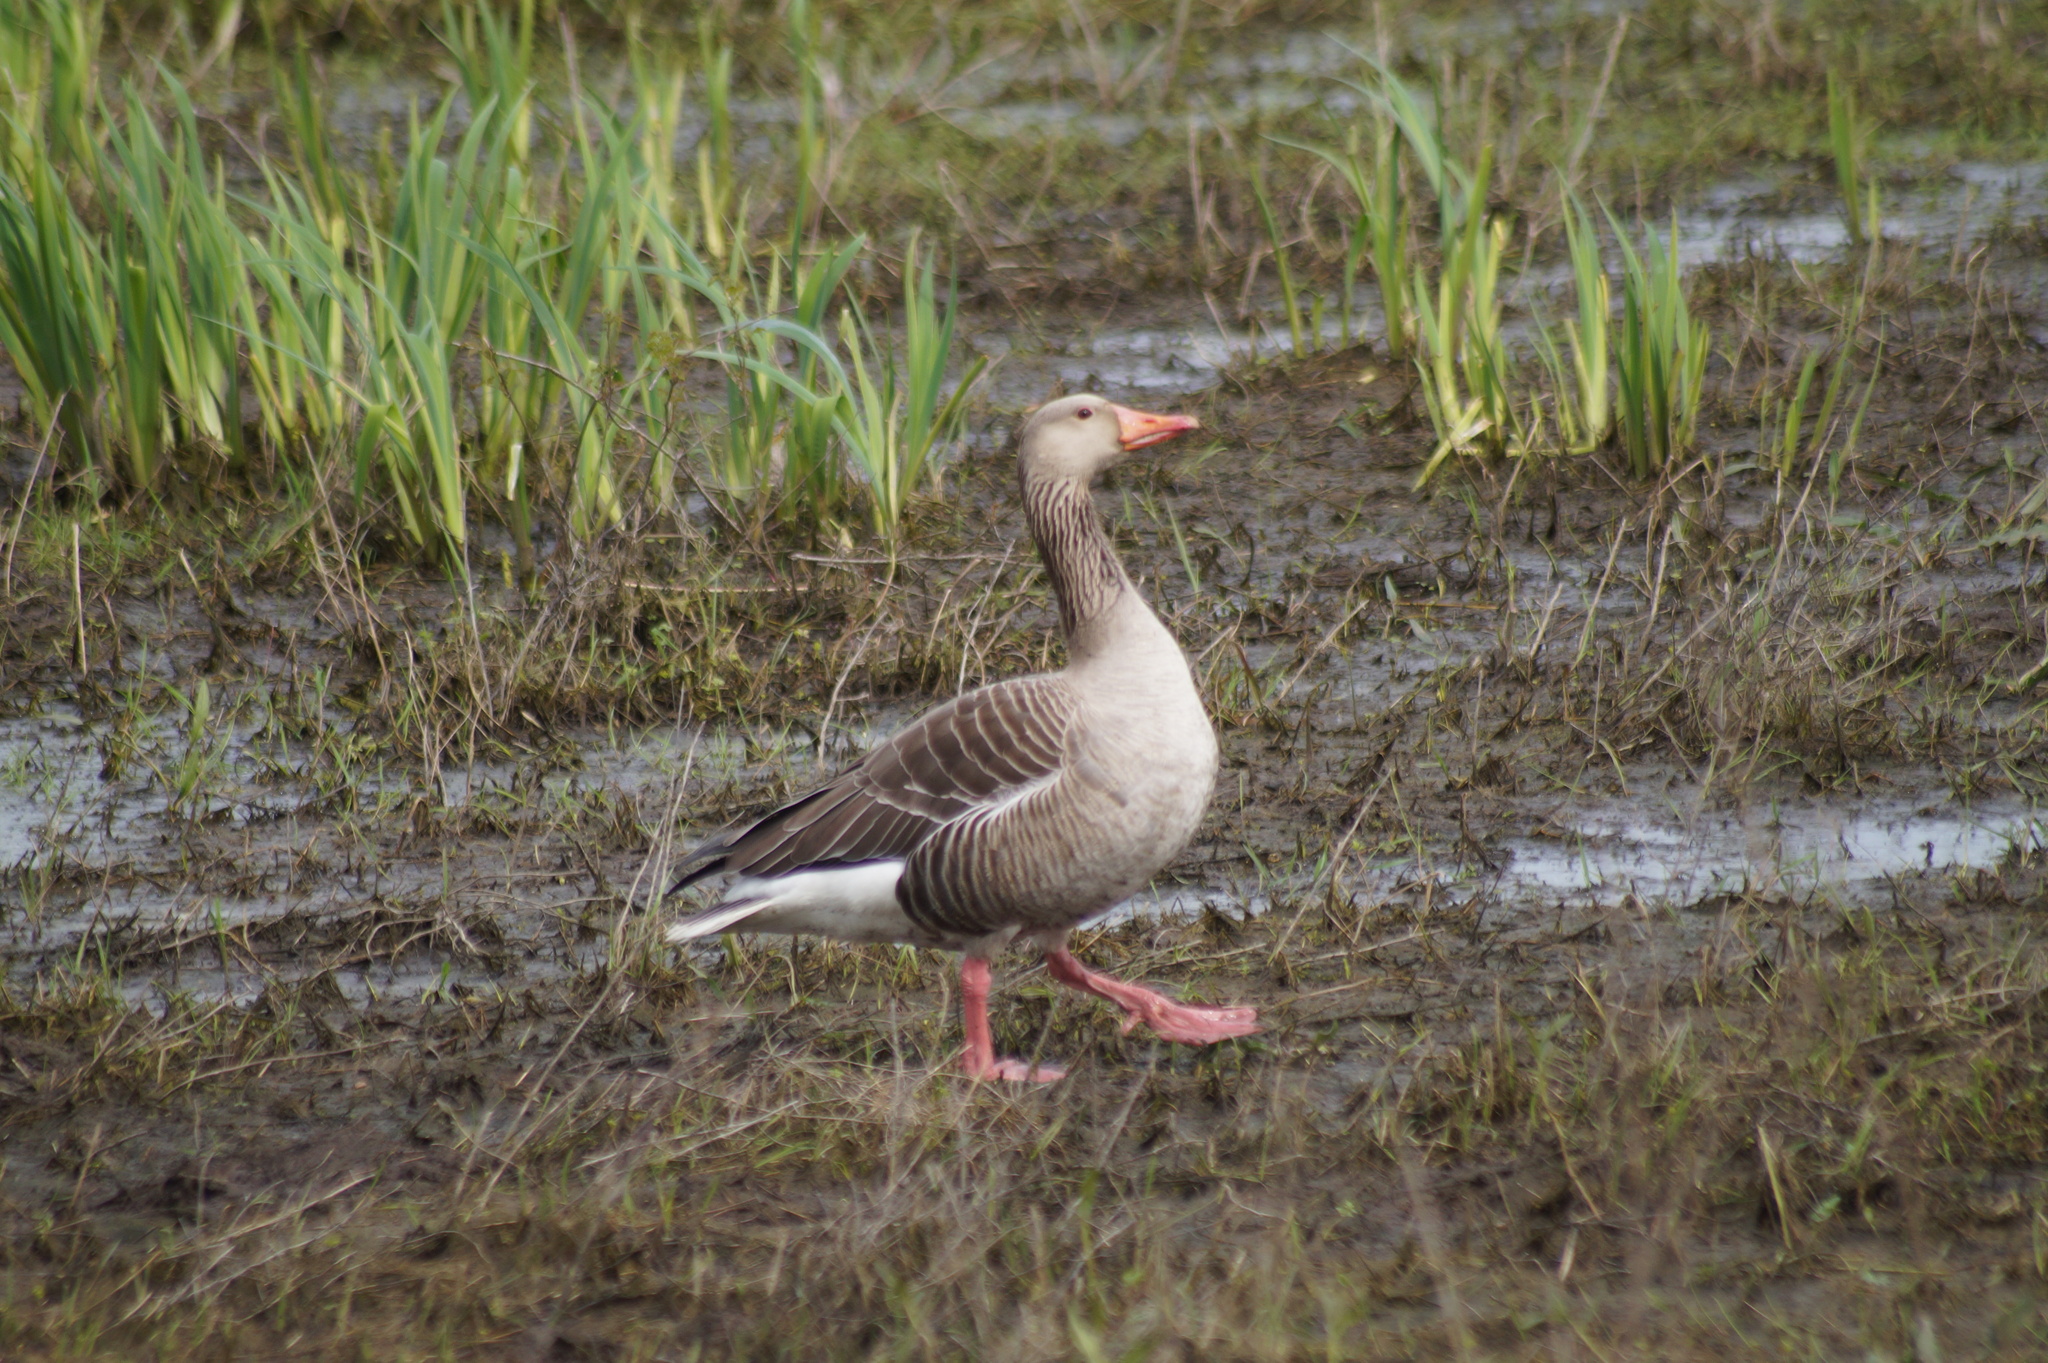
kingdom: Animalia
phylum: Chordata
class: Aves
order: Anseriformes
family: Anatidae
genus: Anser
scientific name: Anser anser
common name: Greylag goose
